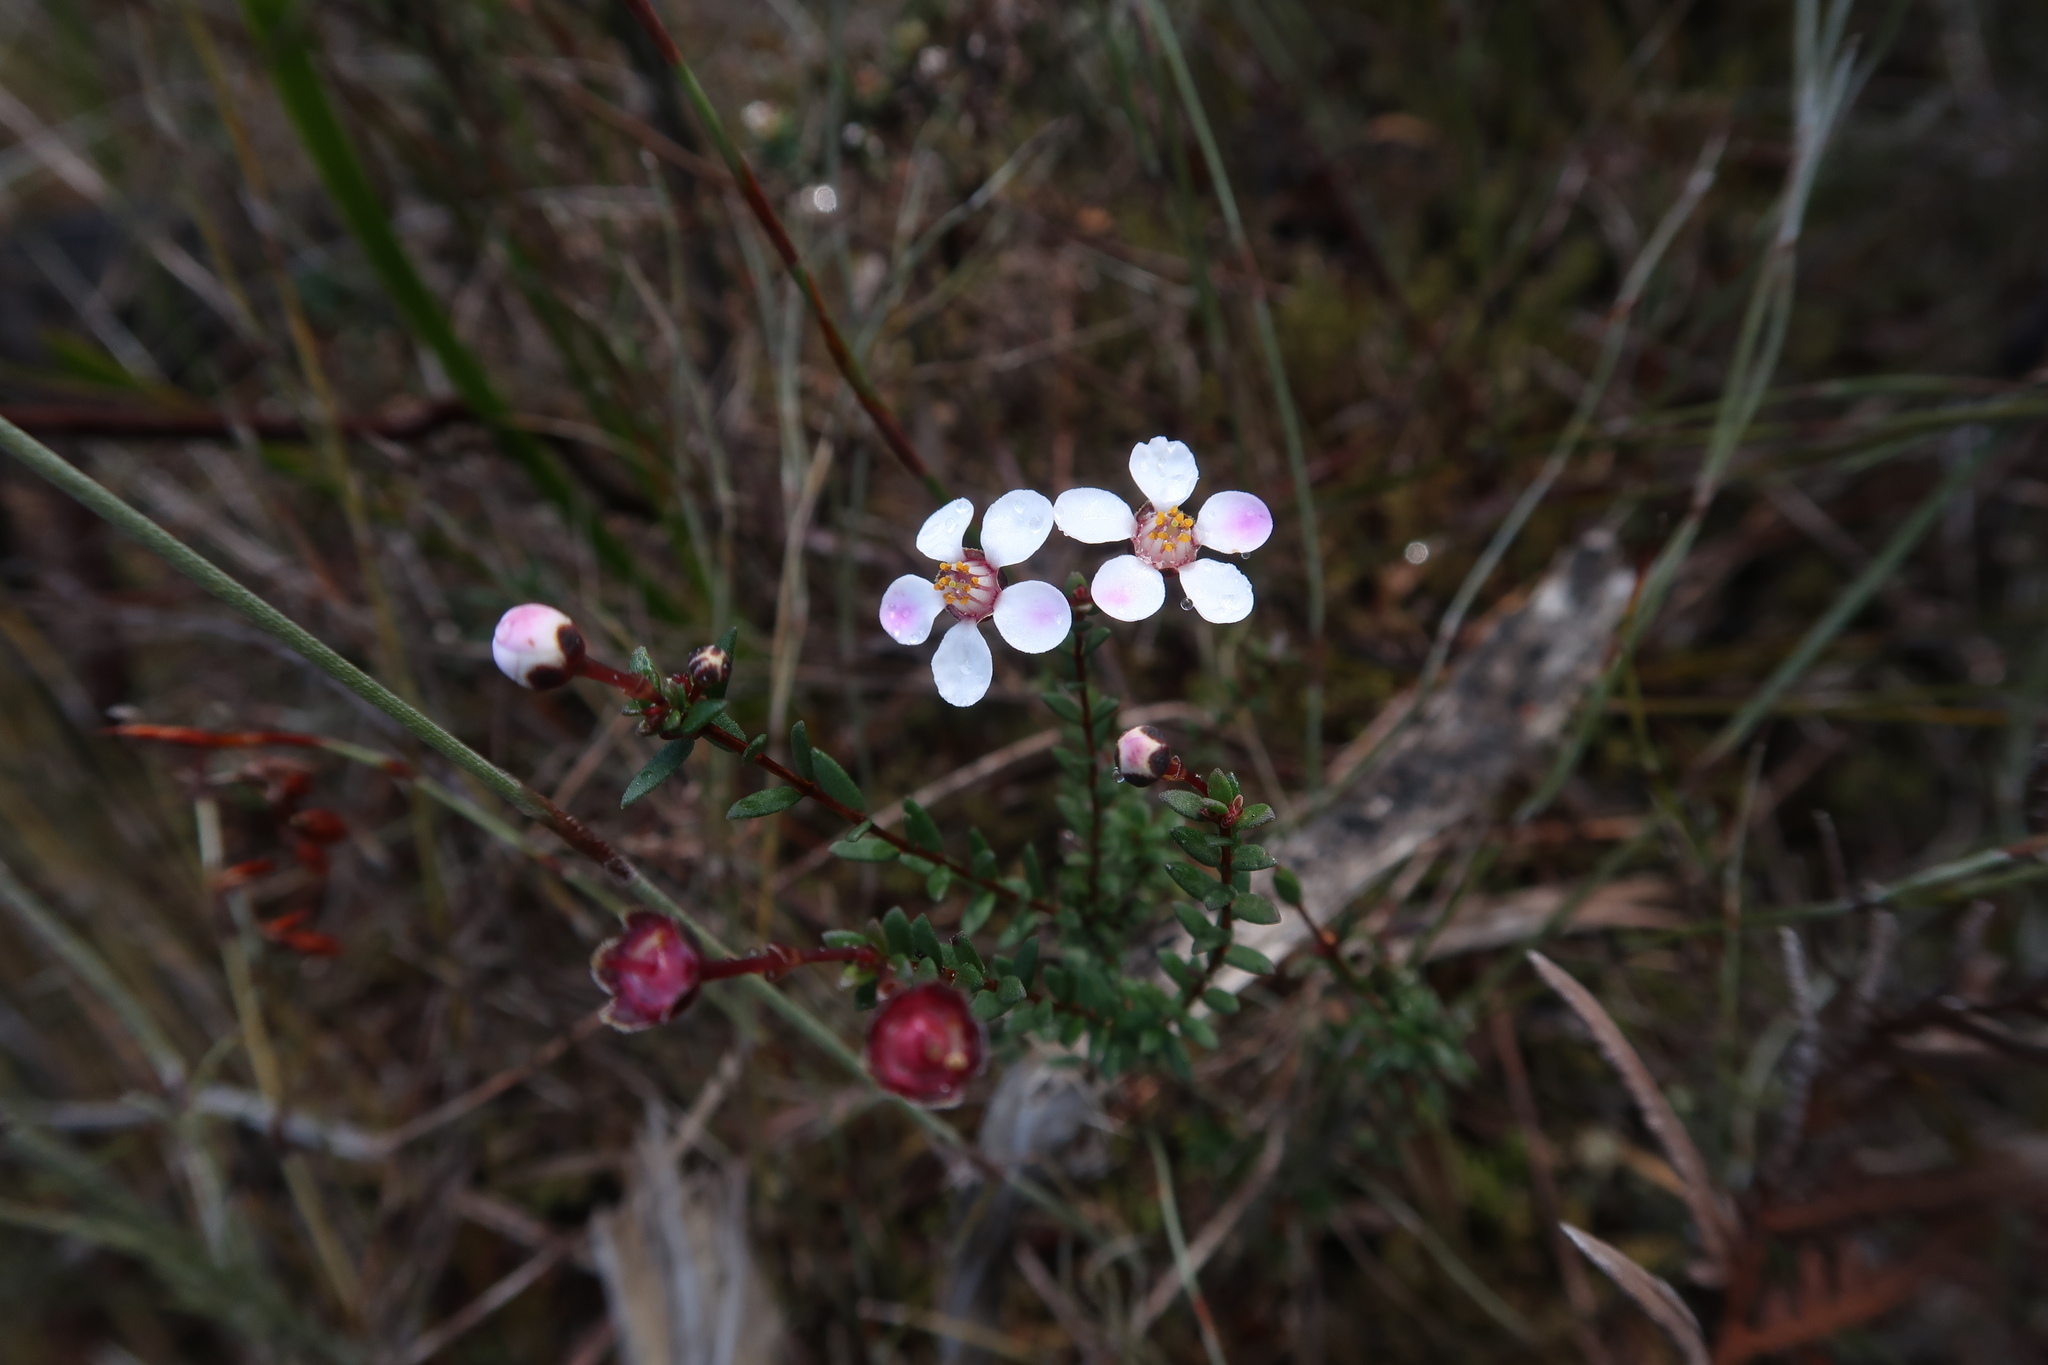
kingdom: Plantae
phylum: Tracheophyta
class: Magnoliopsida
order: Myrtales
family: Myrtaceae
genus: Euryomyrtus
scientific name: Euryomyrtus ramosissima
